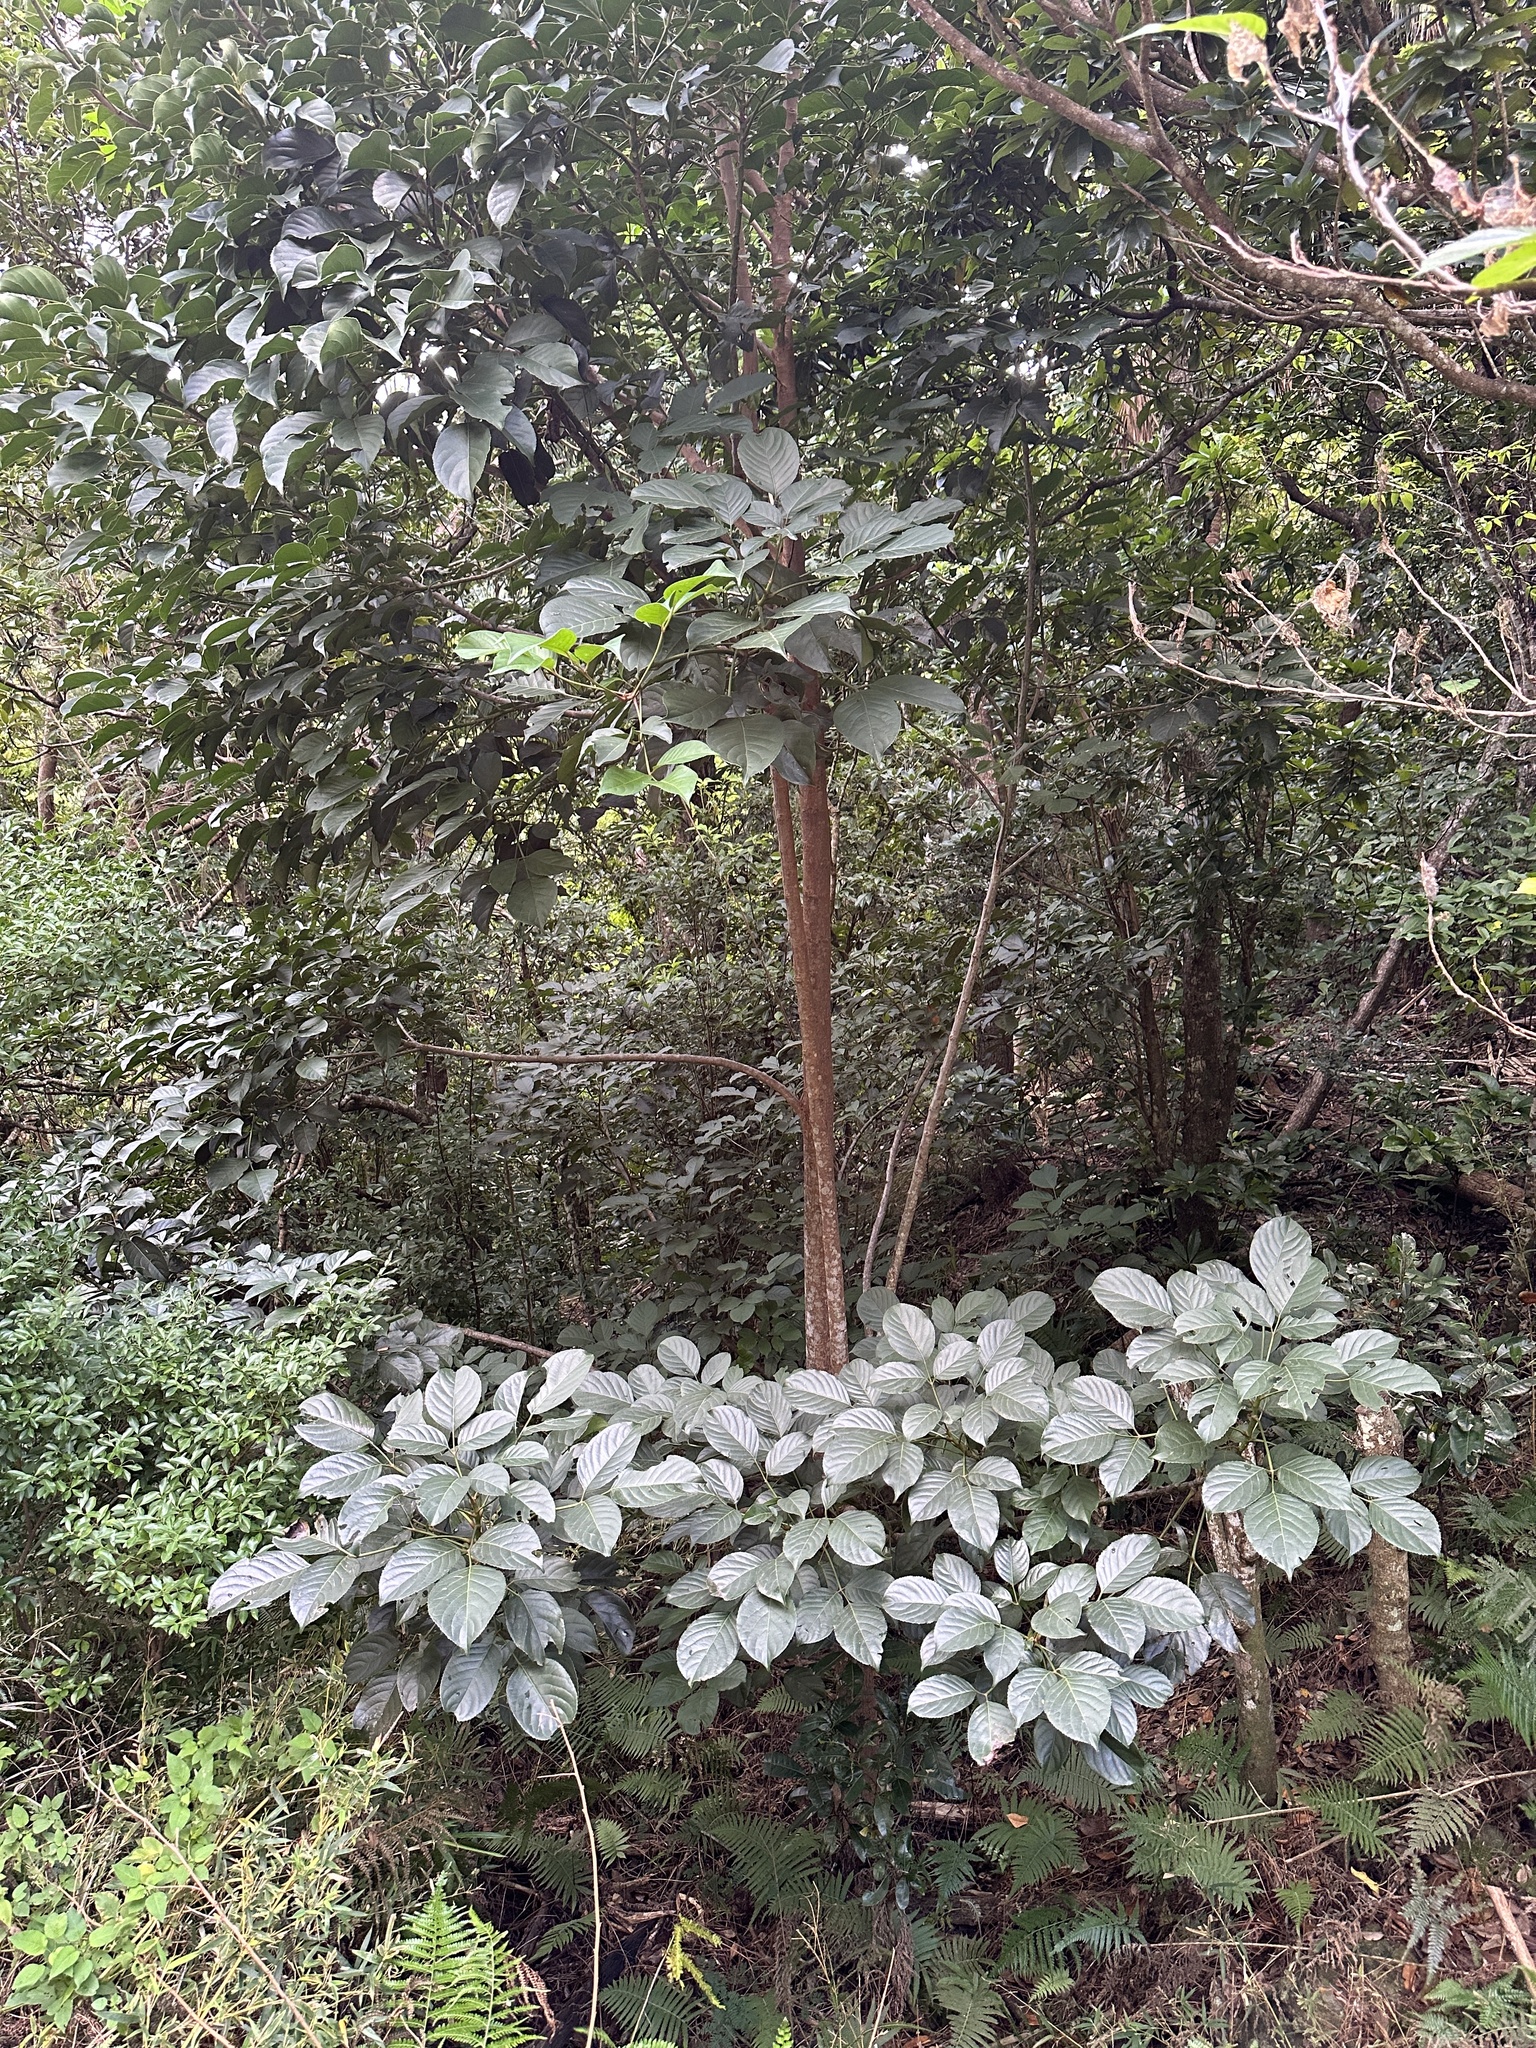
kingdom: Plantae
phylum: Tracheophyta
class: Magnoliopsida
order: Malpighiales
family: Phyllanthaceae
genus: Bischofia
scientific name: Bischofia javanica
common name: Javanese bishopwood
